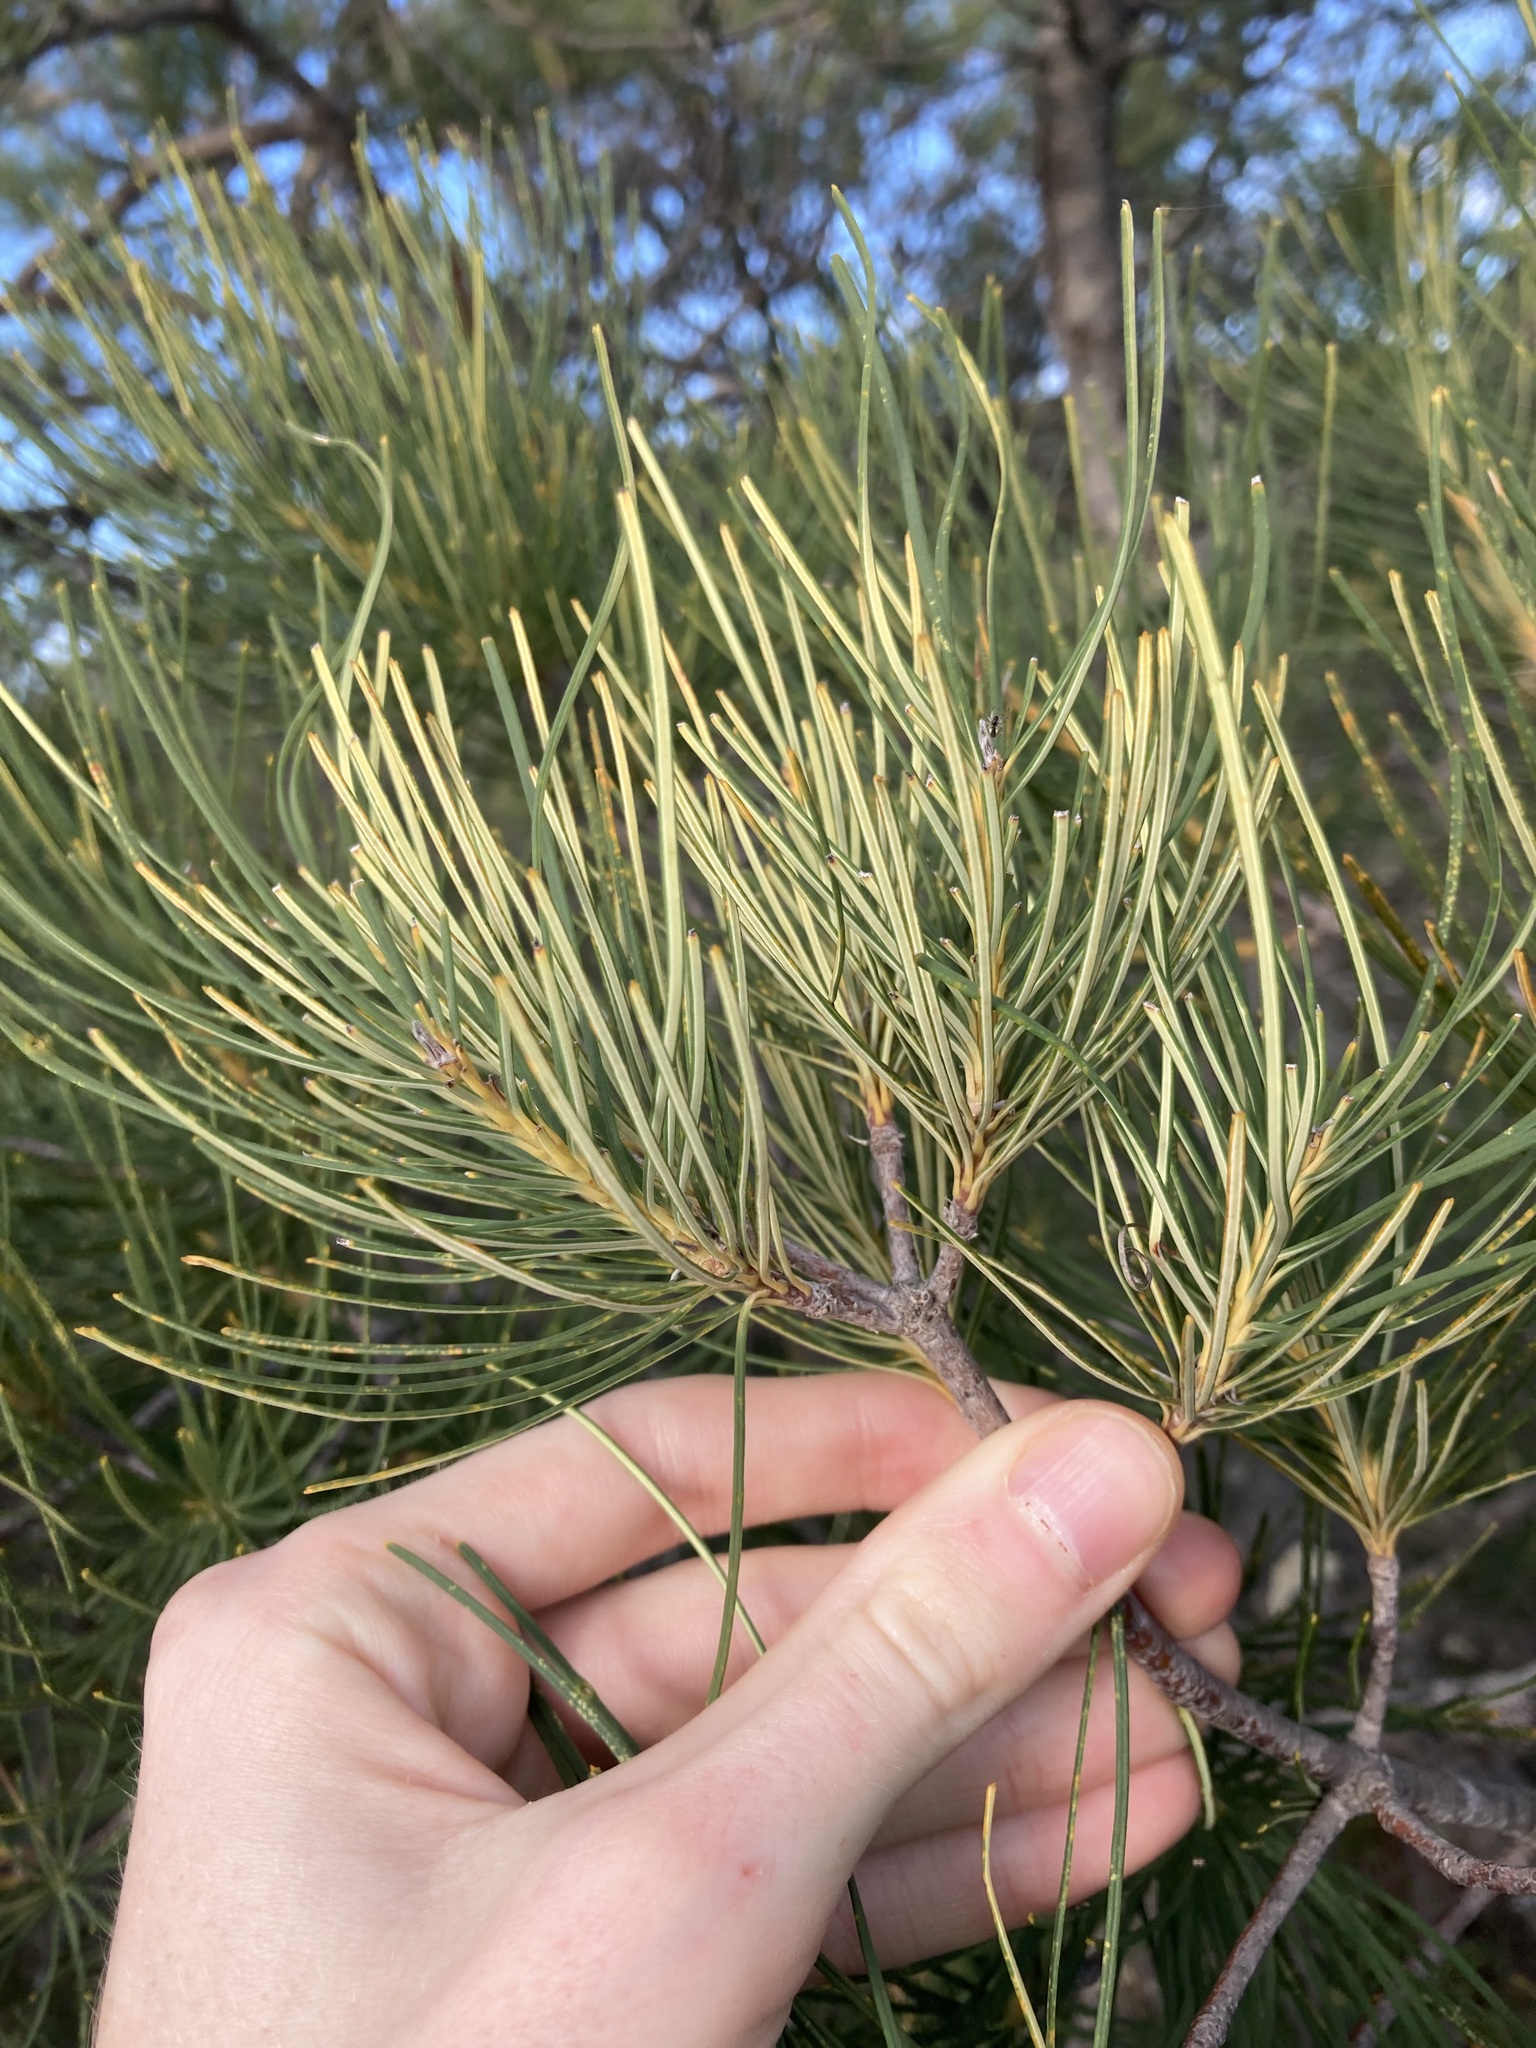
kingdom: Plantae
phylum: Tracheophyta
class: Magnoliopsida
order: Proteales
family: Proteaceae
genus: Banksia
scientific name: Banksia tricuspis
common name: Lesueur banksia
